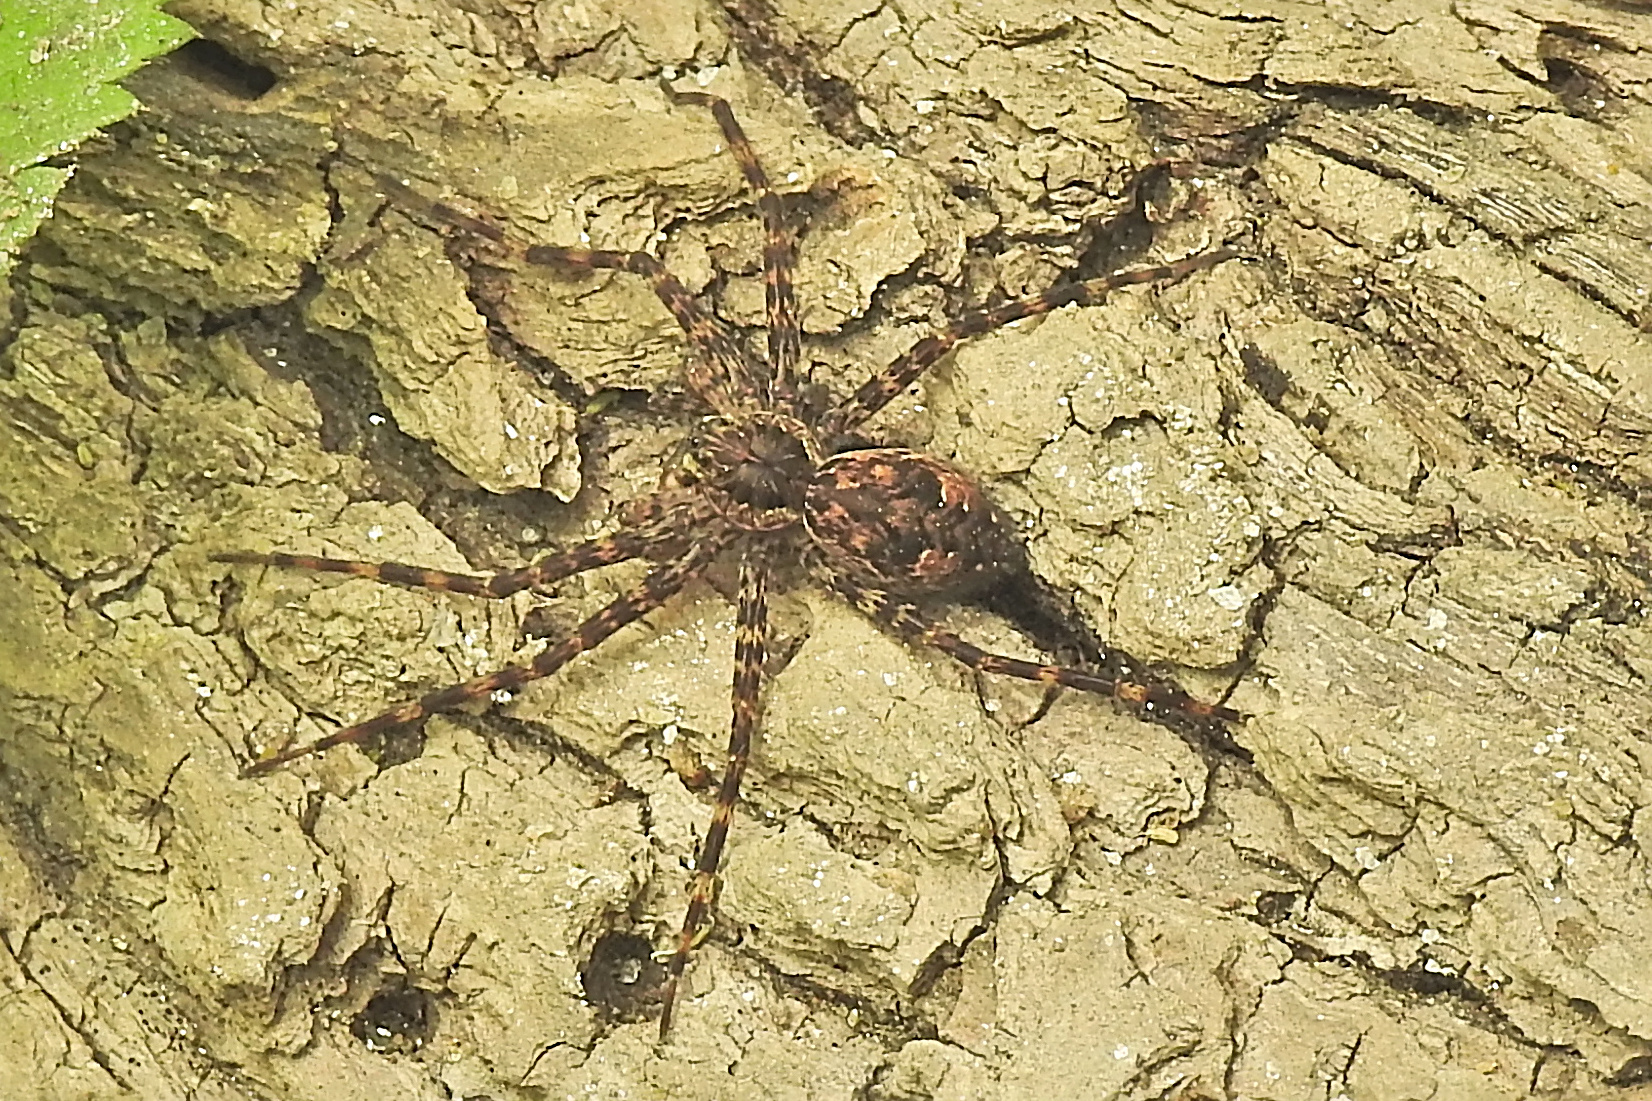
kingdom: Animalia
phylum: Arthropoda
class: Arachnida
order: Araneae
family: Pisauridae
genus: Dolomedes
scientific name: Dolomedes tenebrosus
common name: Dark fishing spider
